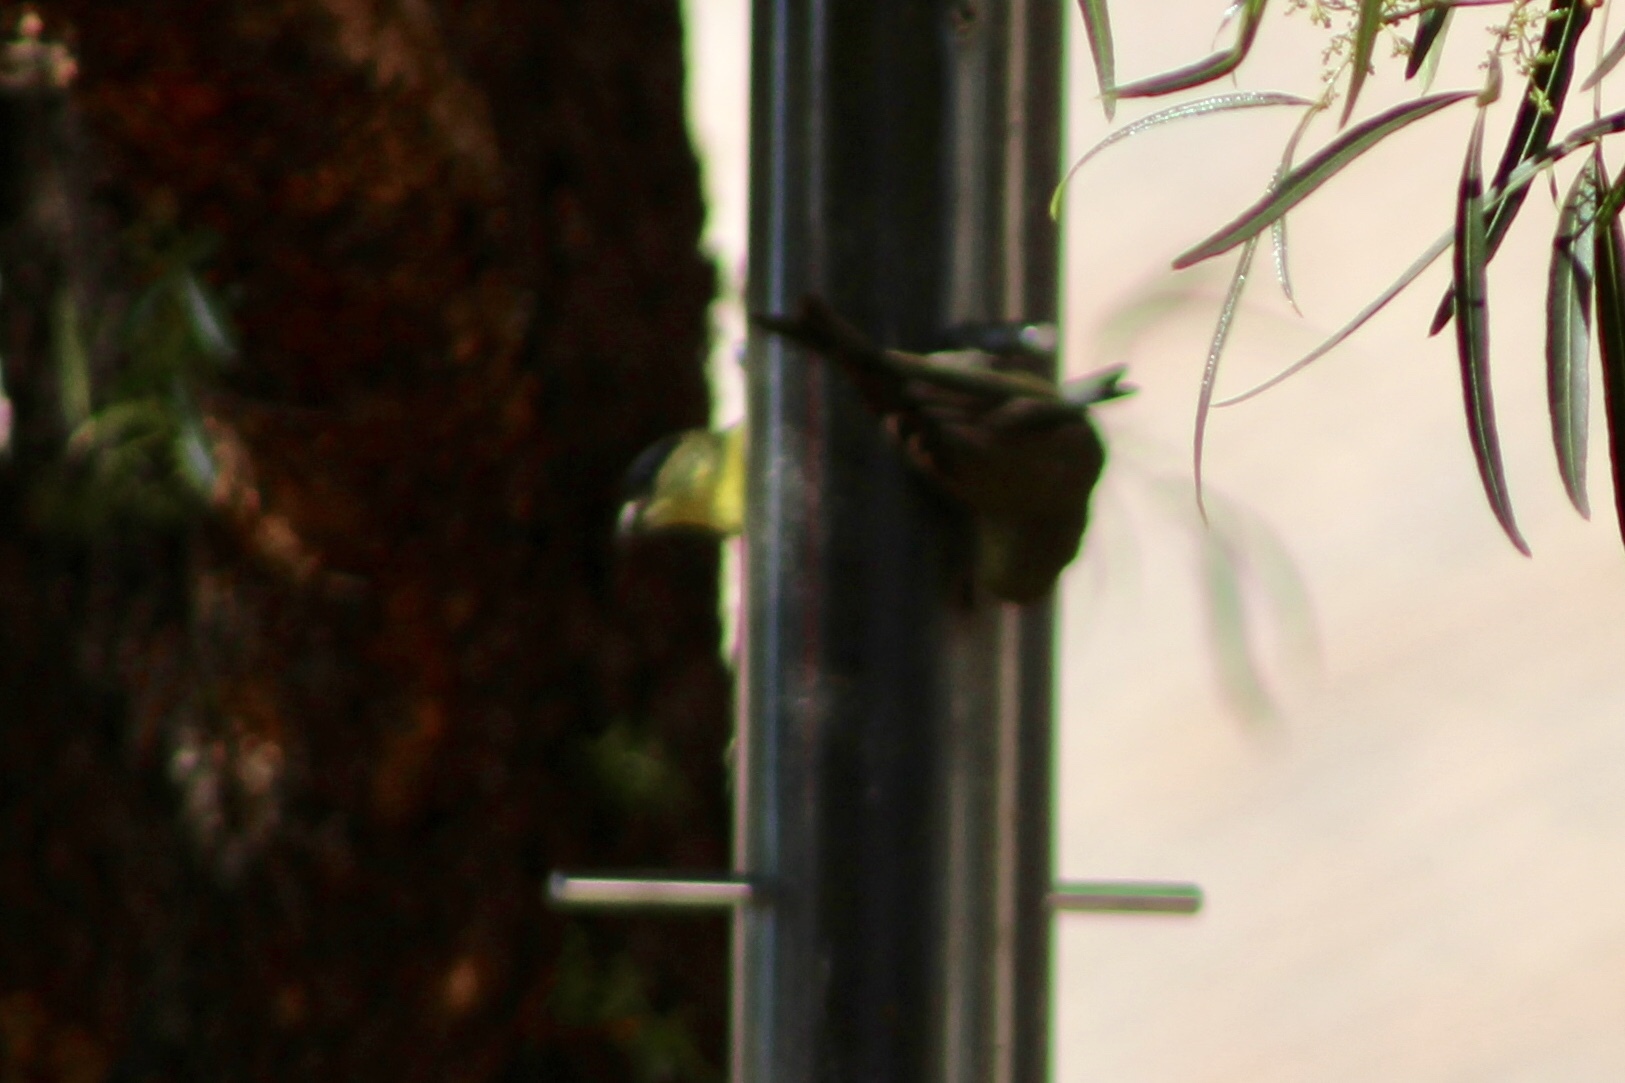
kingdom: Animalia
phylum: Chordata
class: Aves
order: Passeriformes
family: Fringillidae
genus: Spinus
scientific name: Spinus psaltria
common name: Lesser goldfinch
